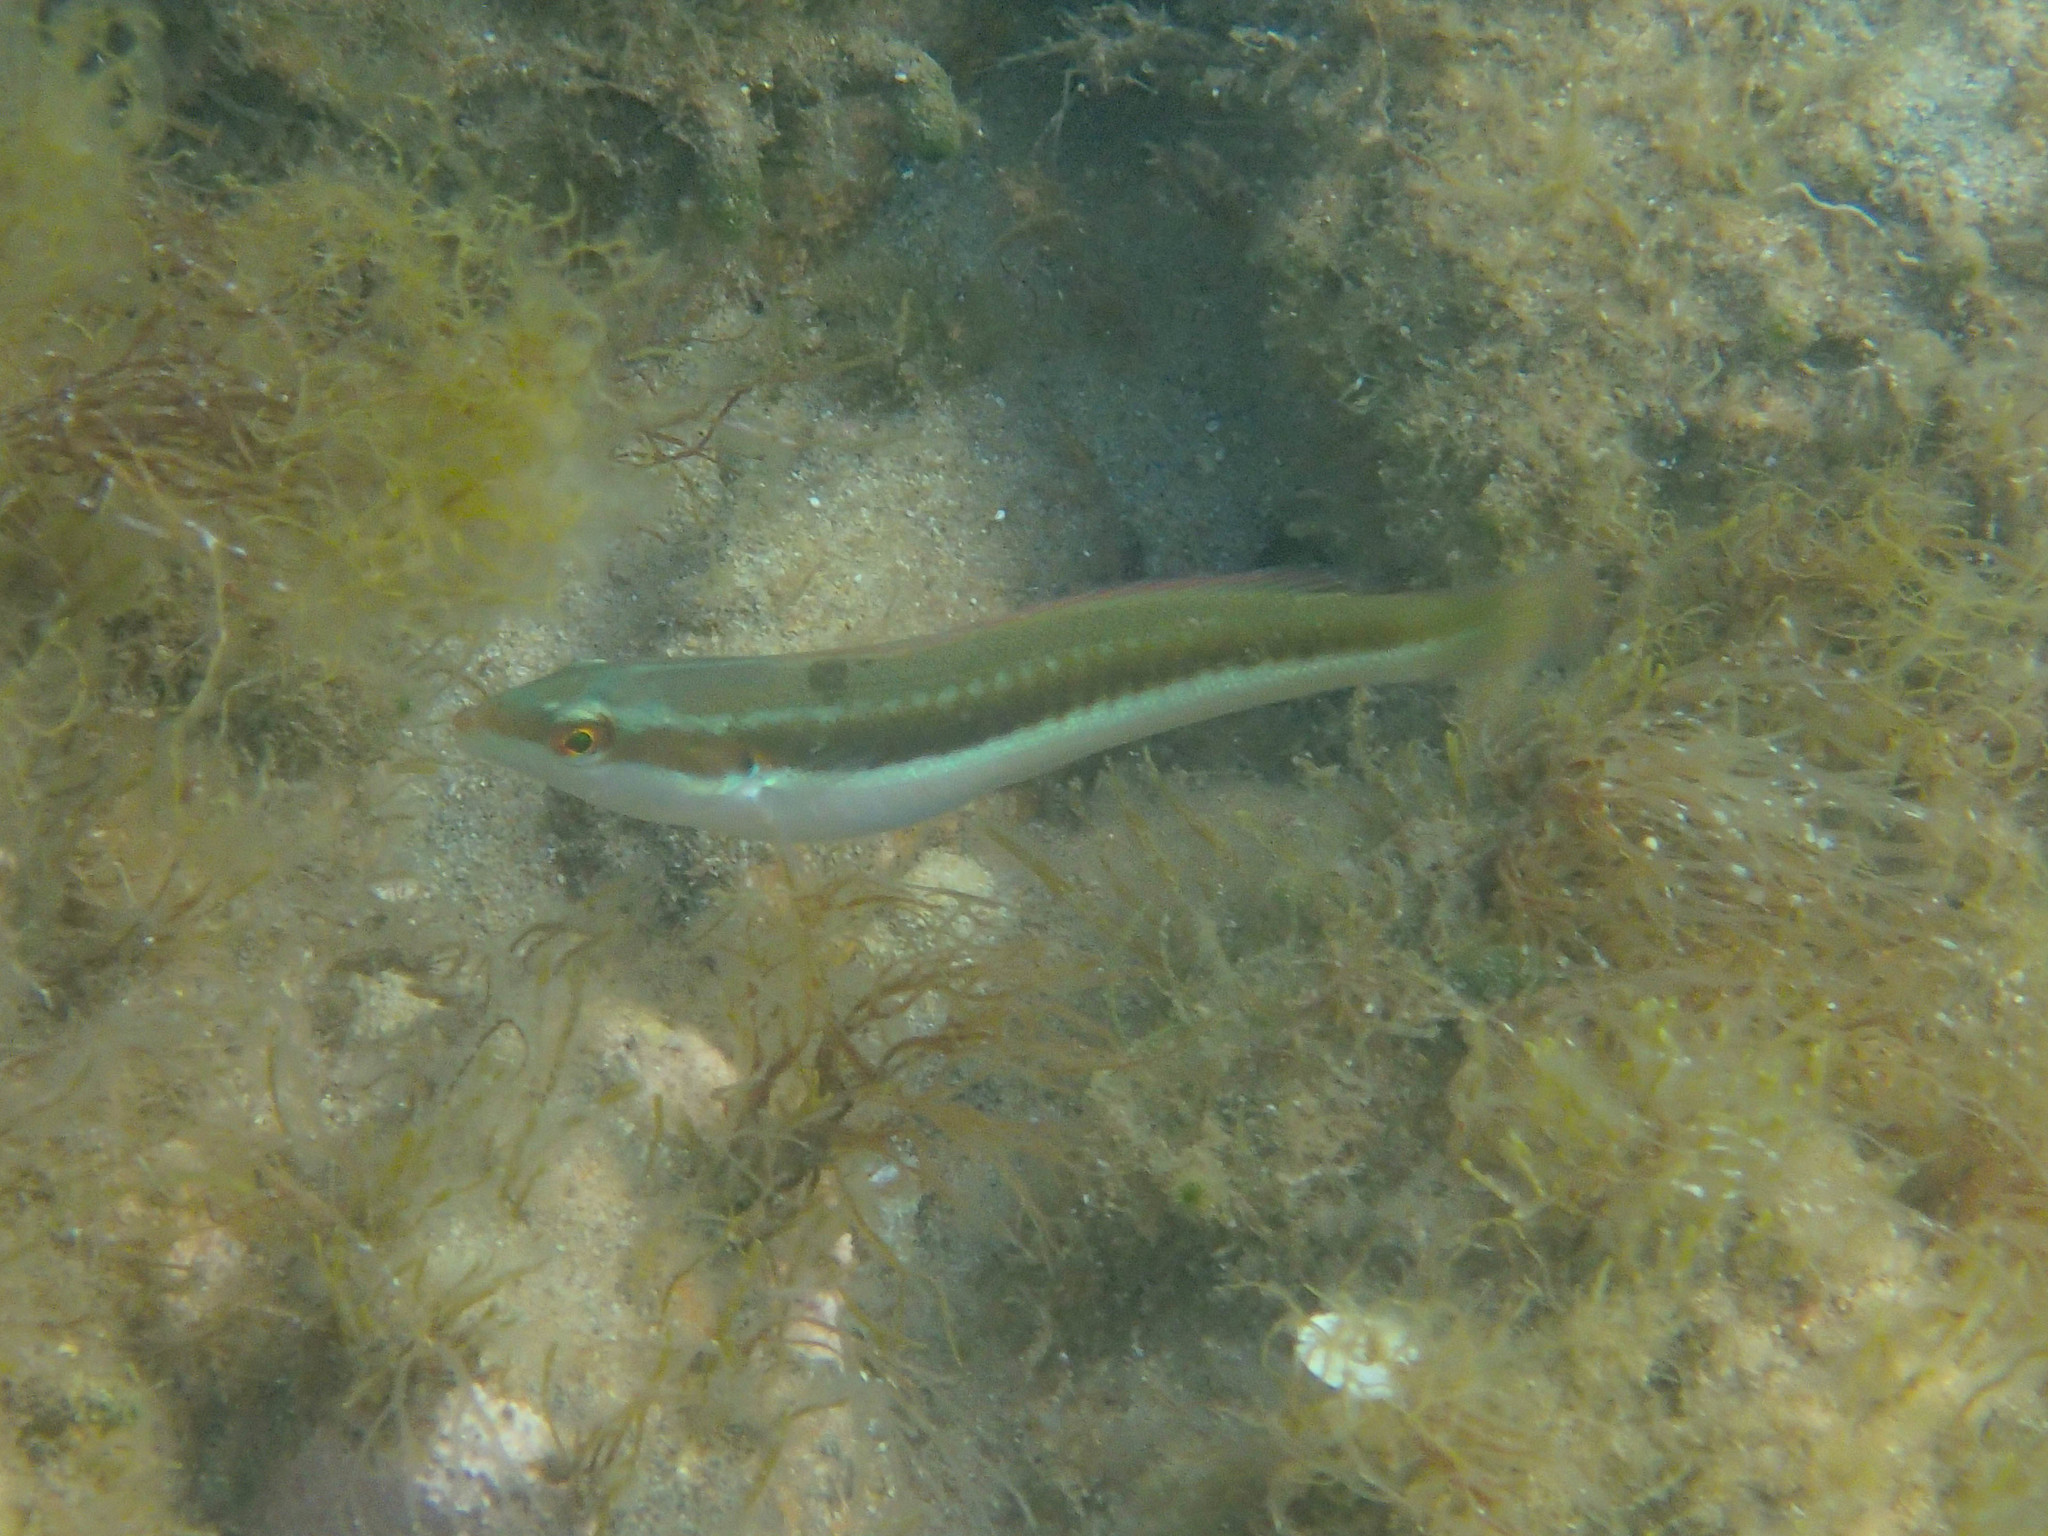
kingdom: Animalia
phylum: Chordata
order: Perciformes
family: Labridae
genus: Coris
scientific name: Coris julis
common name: Rainbow wrasse
